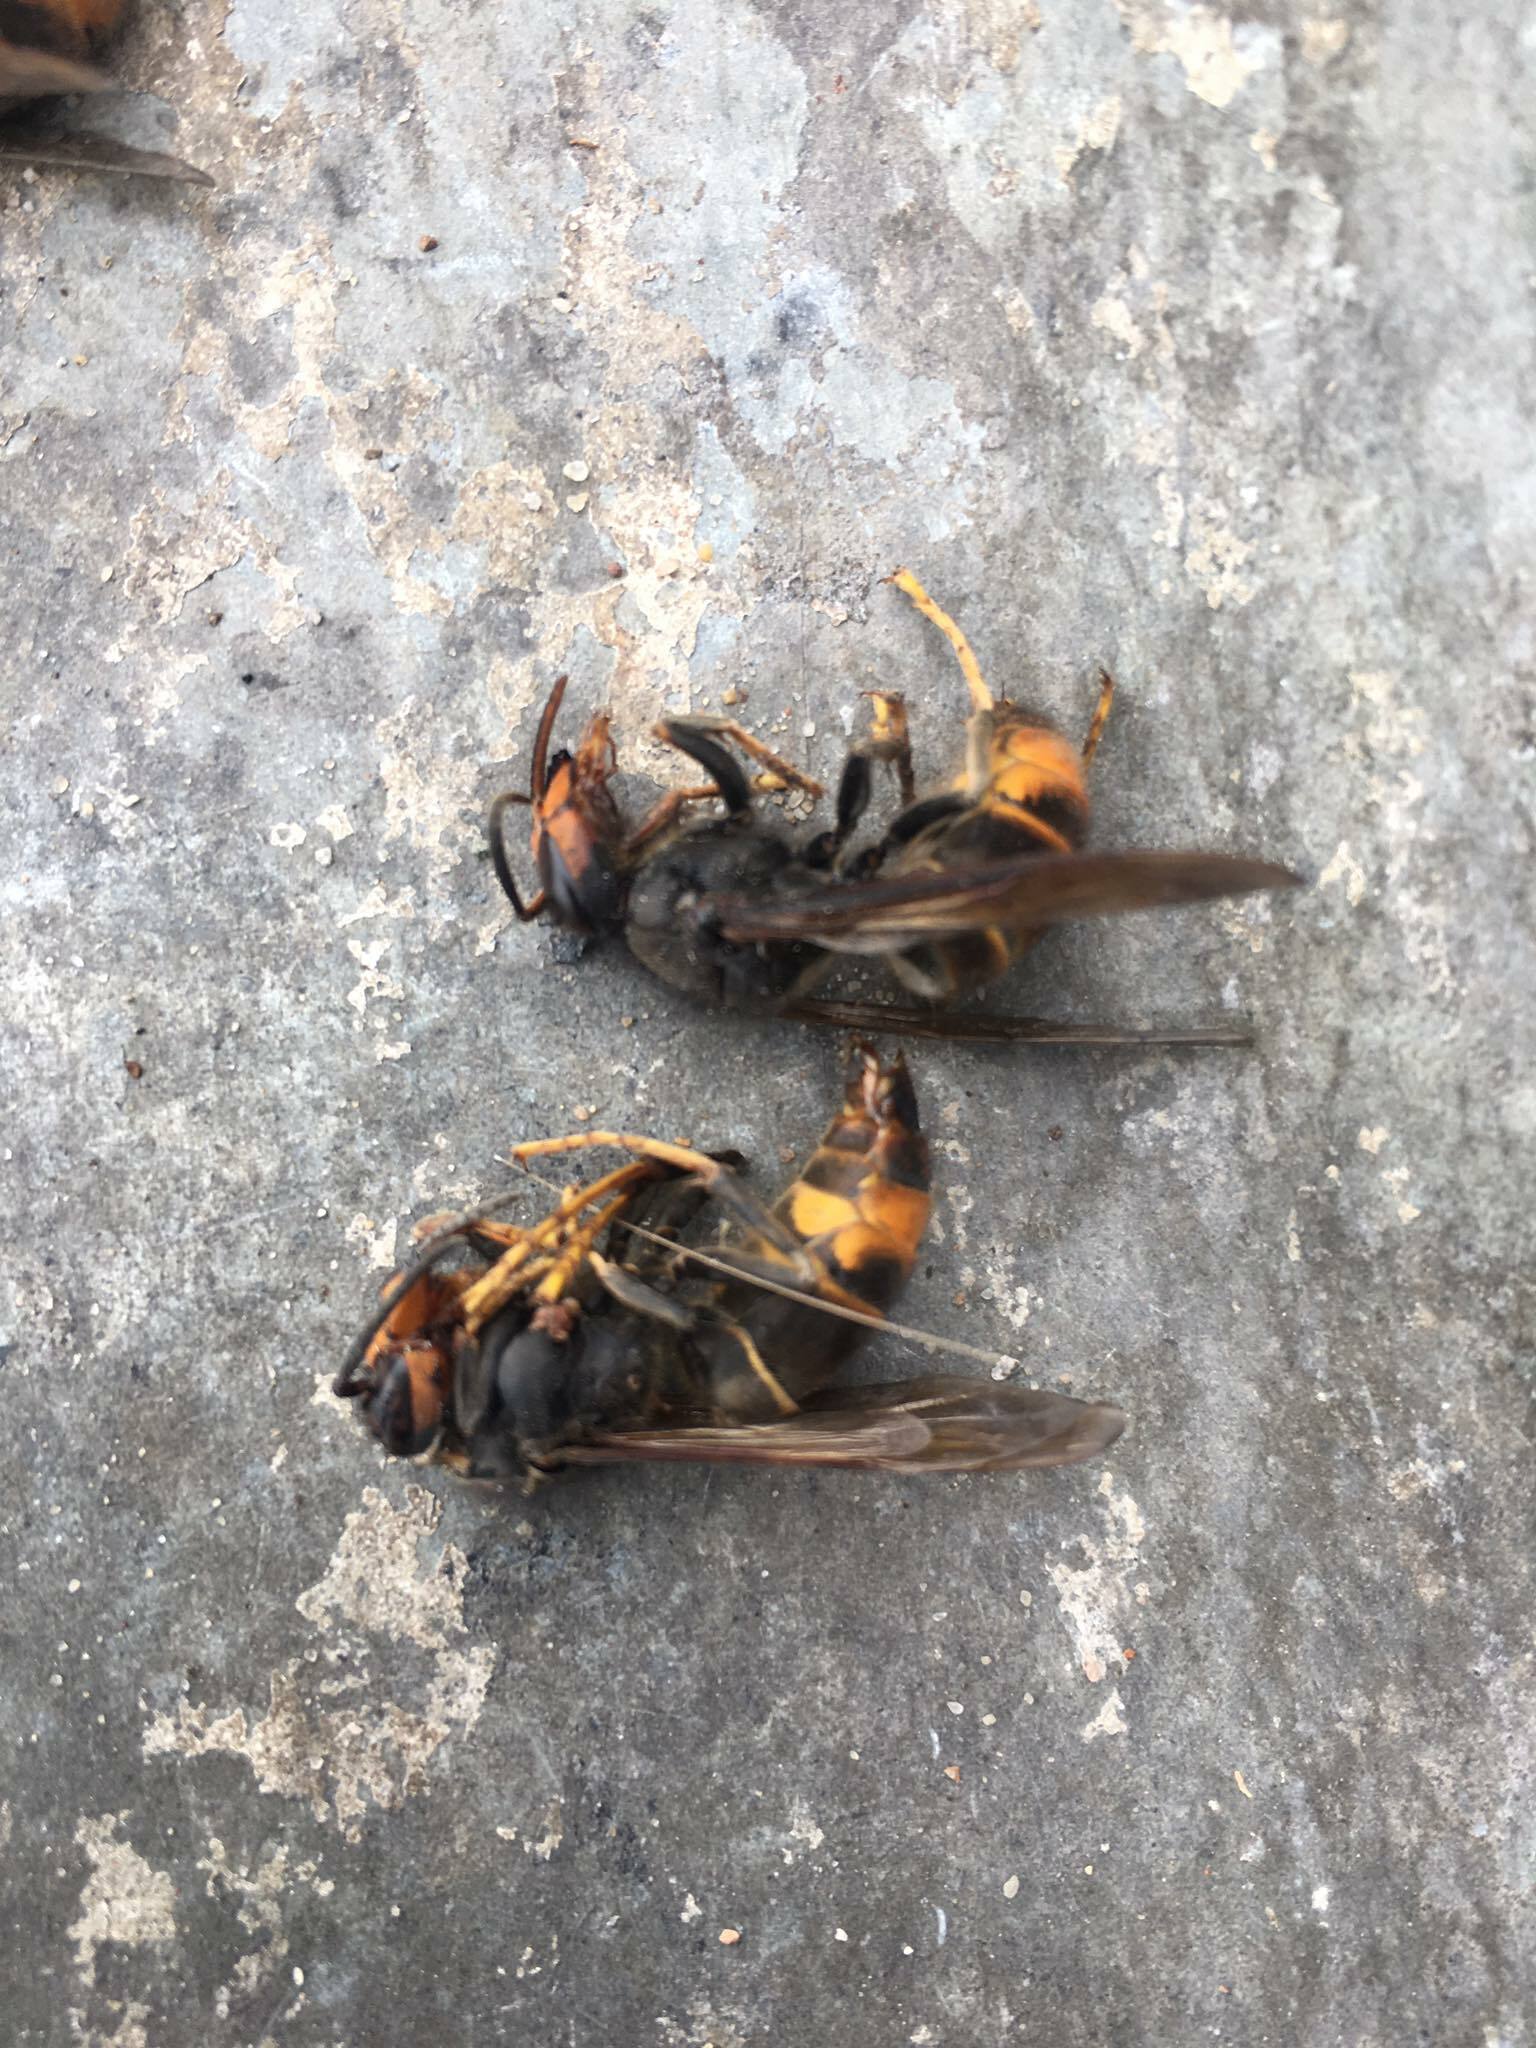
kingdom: Animalia
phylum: Arthropoda
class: Insecta
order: Hymenoptera
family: Vespidae
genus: Vespa
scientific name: Vespa velutina
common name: Asian hornet
